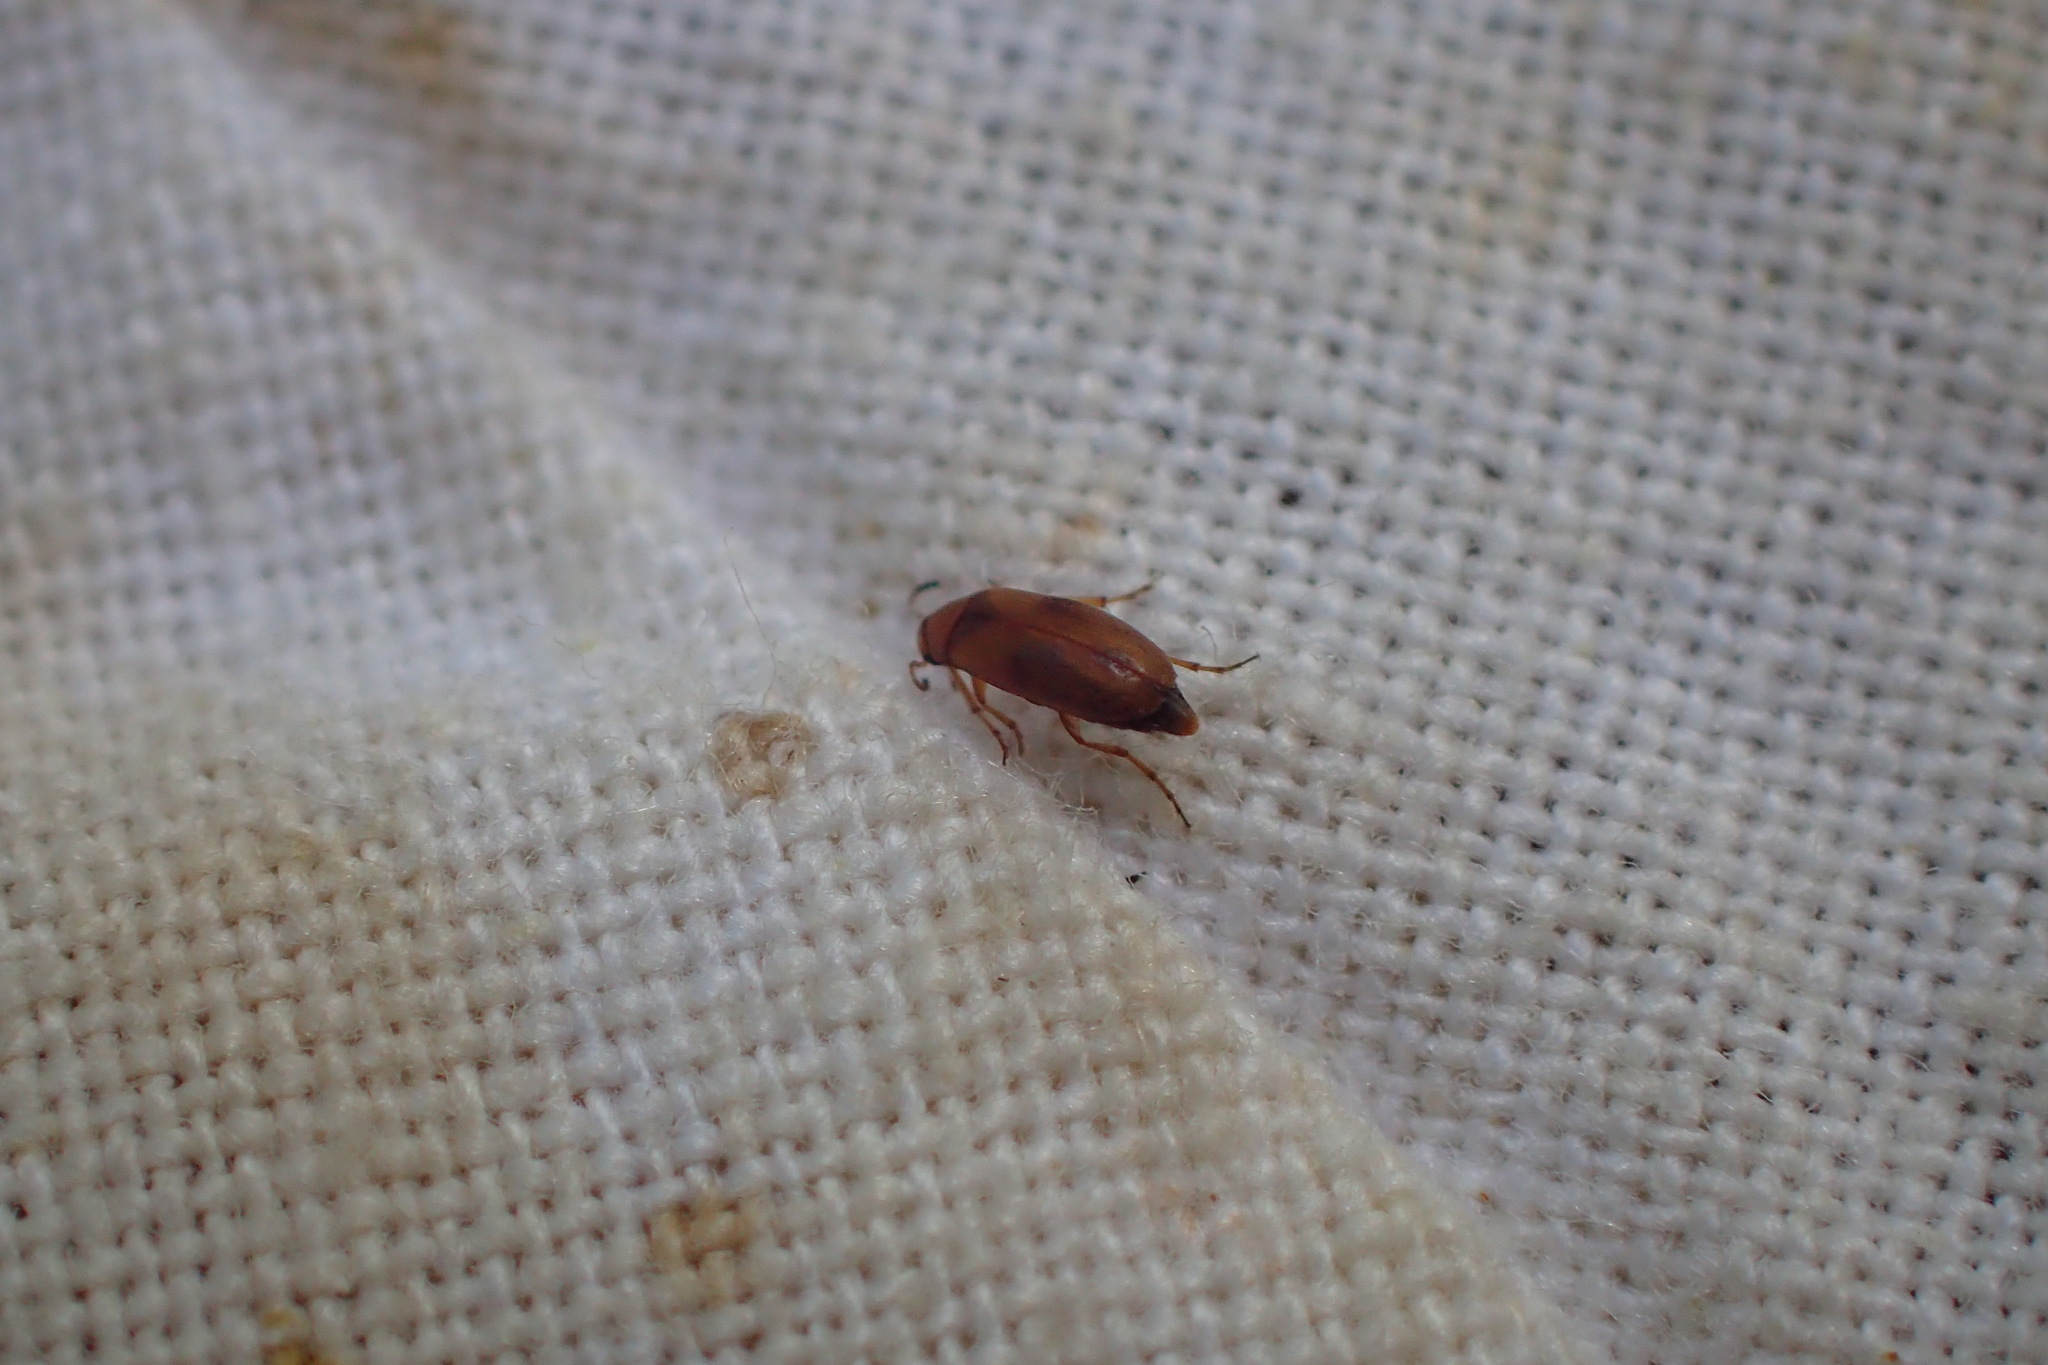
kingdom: Animalia
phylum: Arthropoda
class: Insecta
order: Coleoptera
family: Scraptiidae
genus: Anaspis
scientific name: Anaspis maculata
